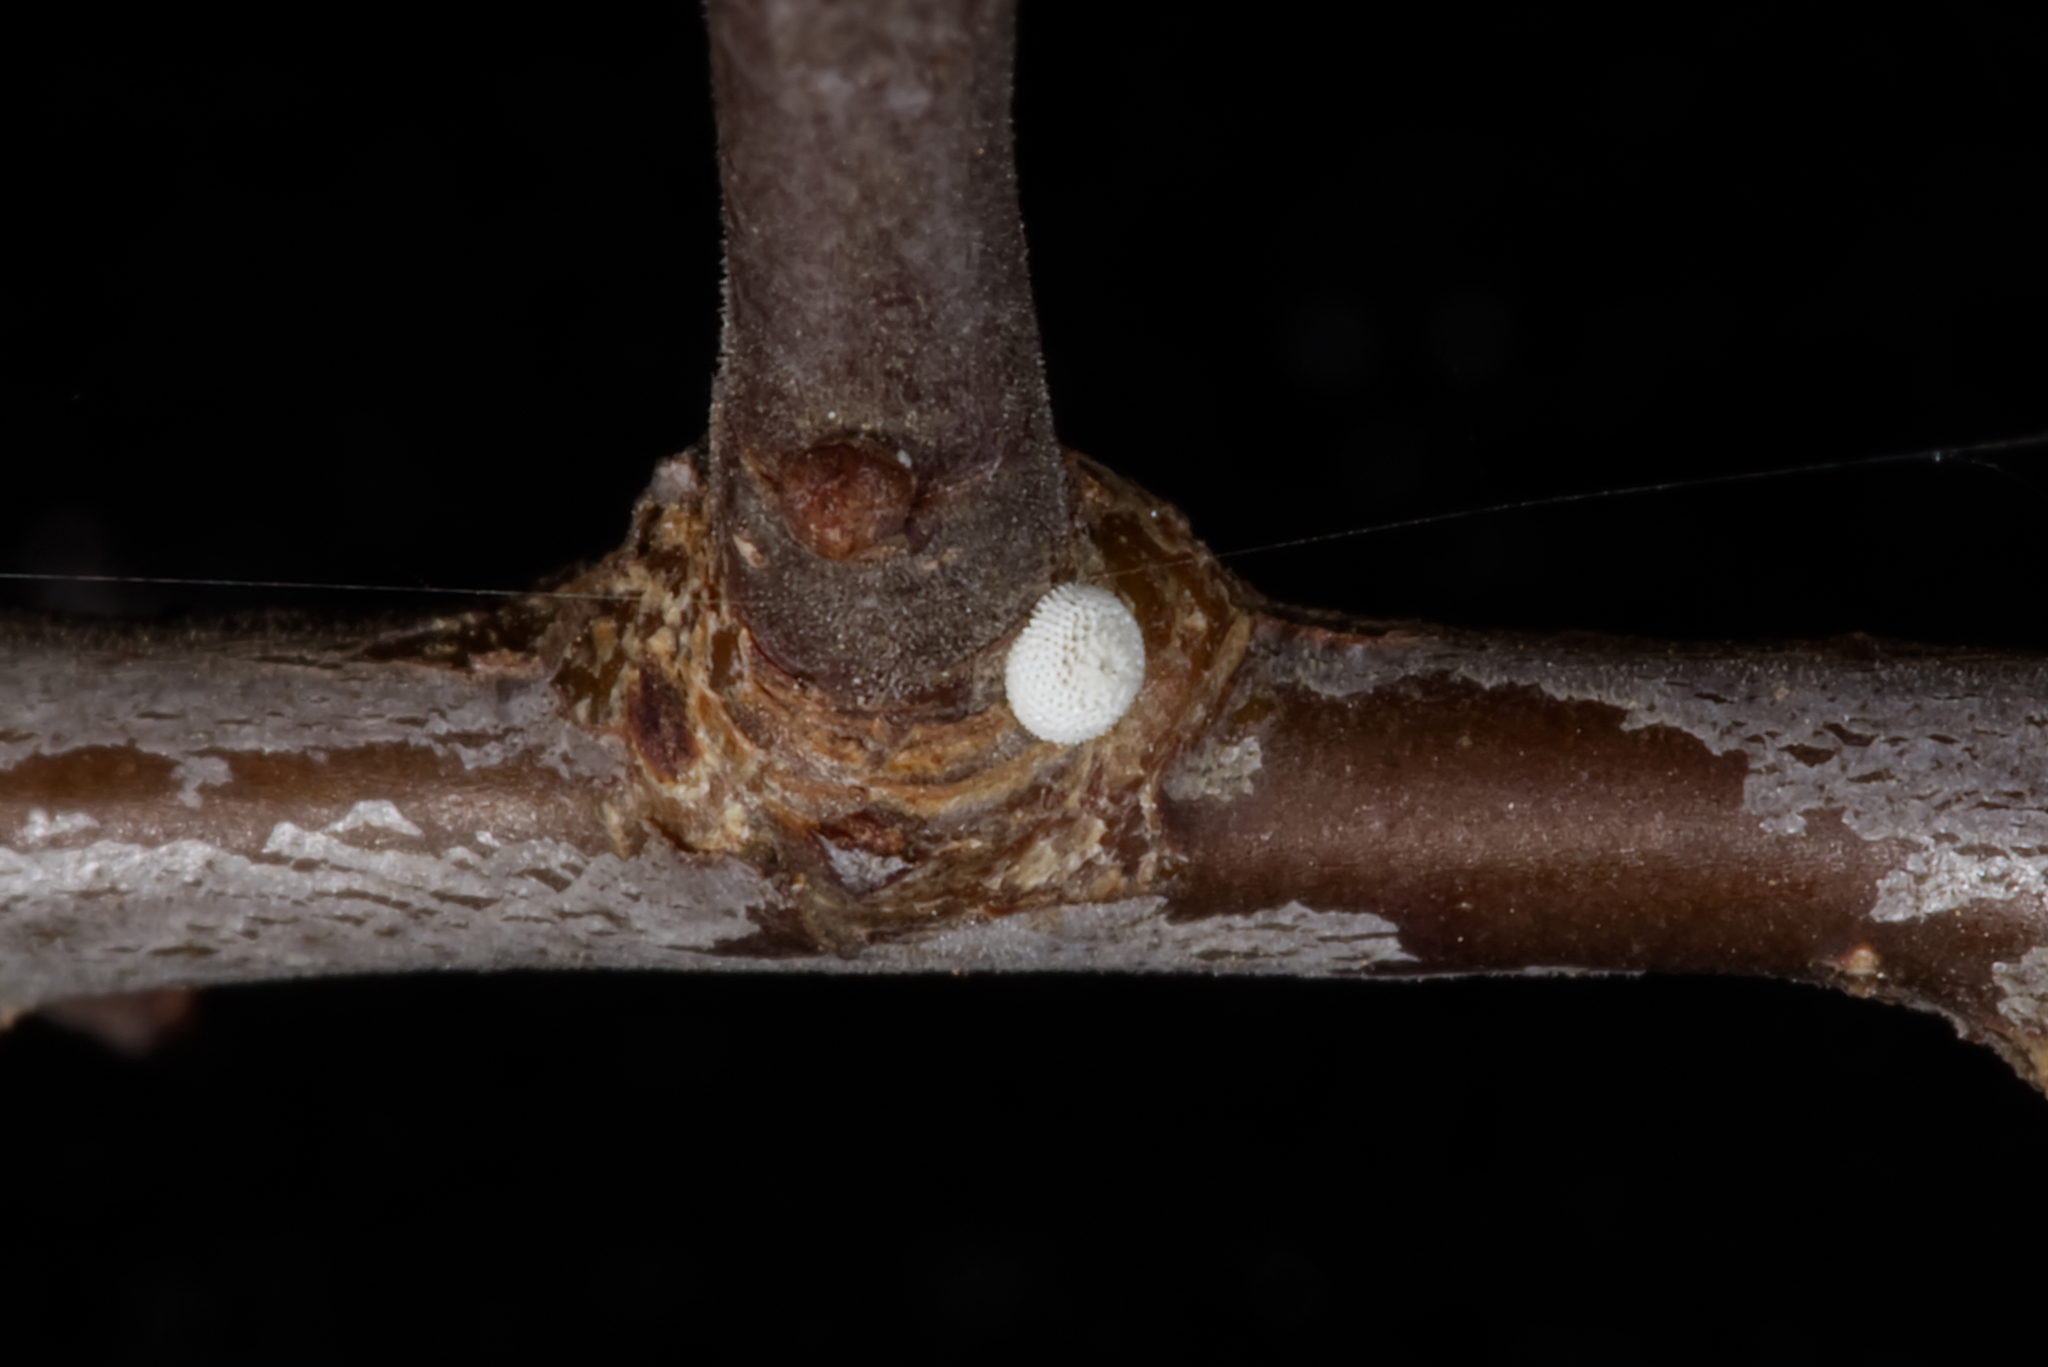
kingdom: Animalia
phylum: Arthropoda
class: Insecta
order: Lepidoptera
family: Lycaenidae
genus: Thecla
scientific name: Thecla betulae
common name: Brown hairstreak
